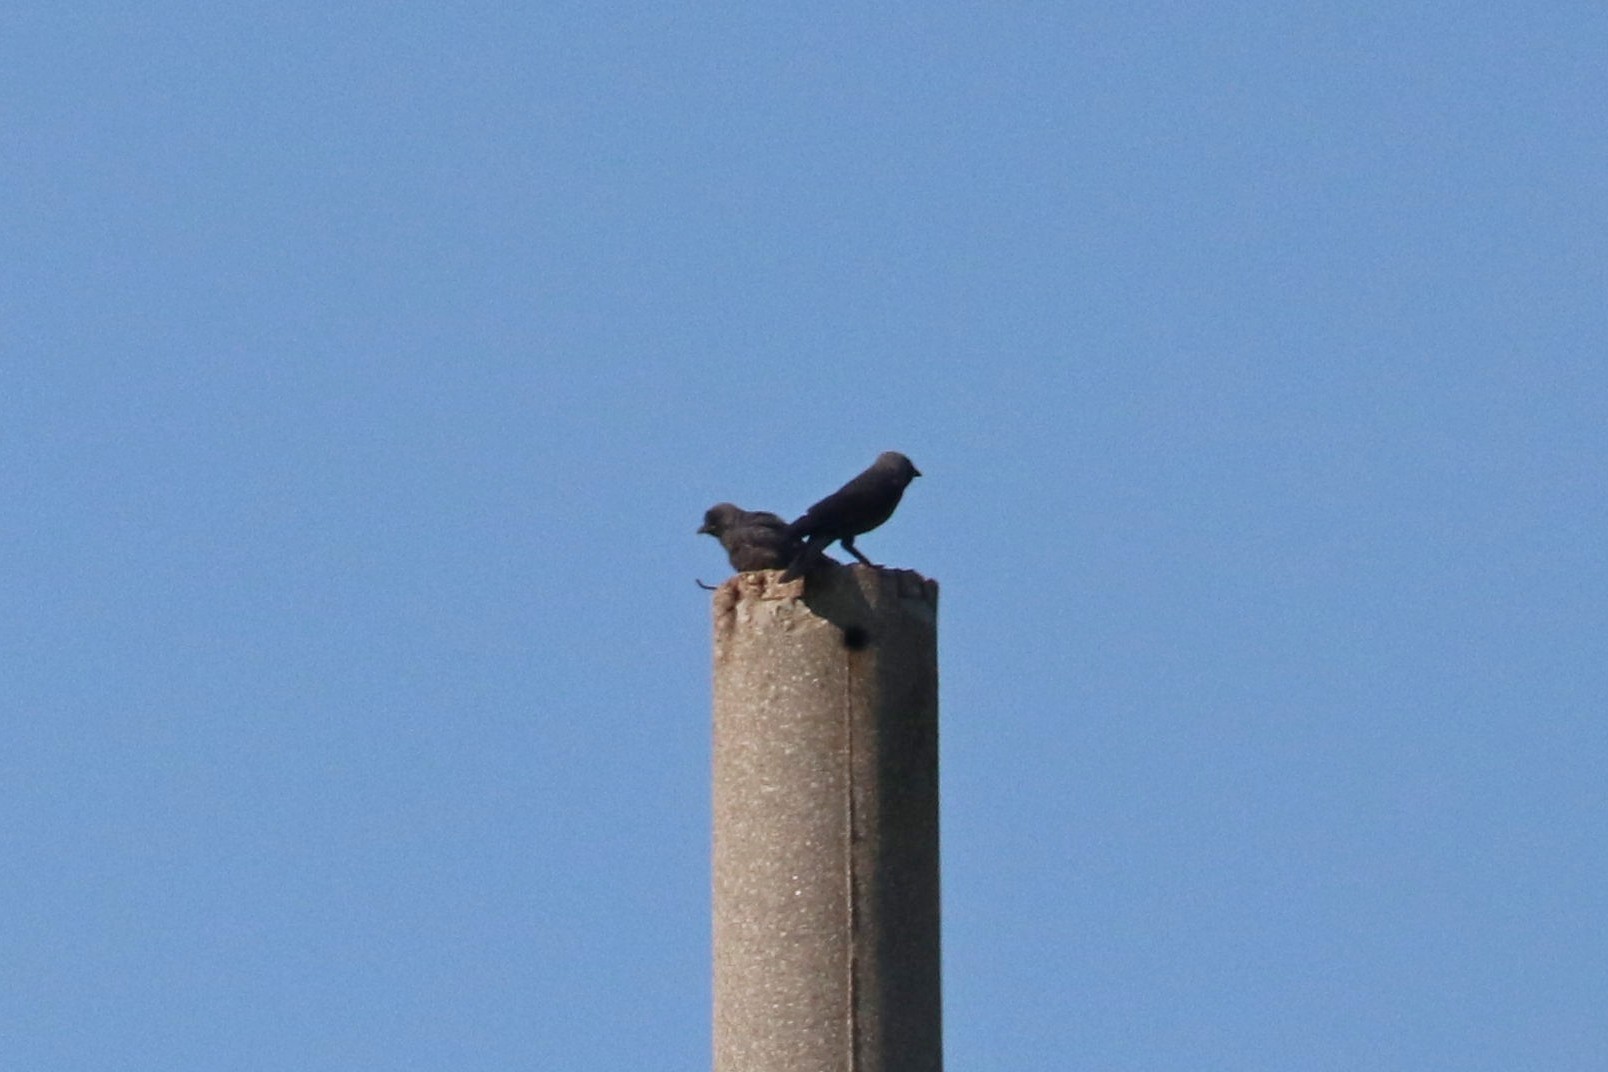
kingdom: Animalia
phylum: Chordata
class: Aves
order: Passeriformes
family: Corvidae
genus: Coloeus
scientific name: Coloeus monedula
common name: Western jackdaw
